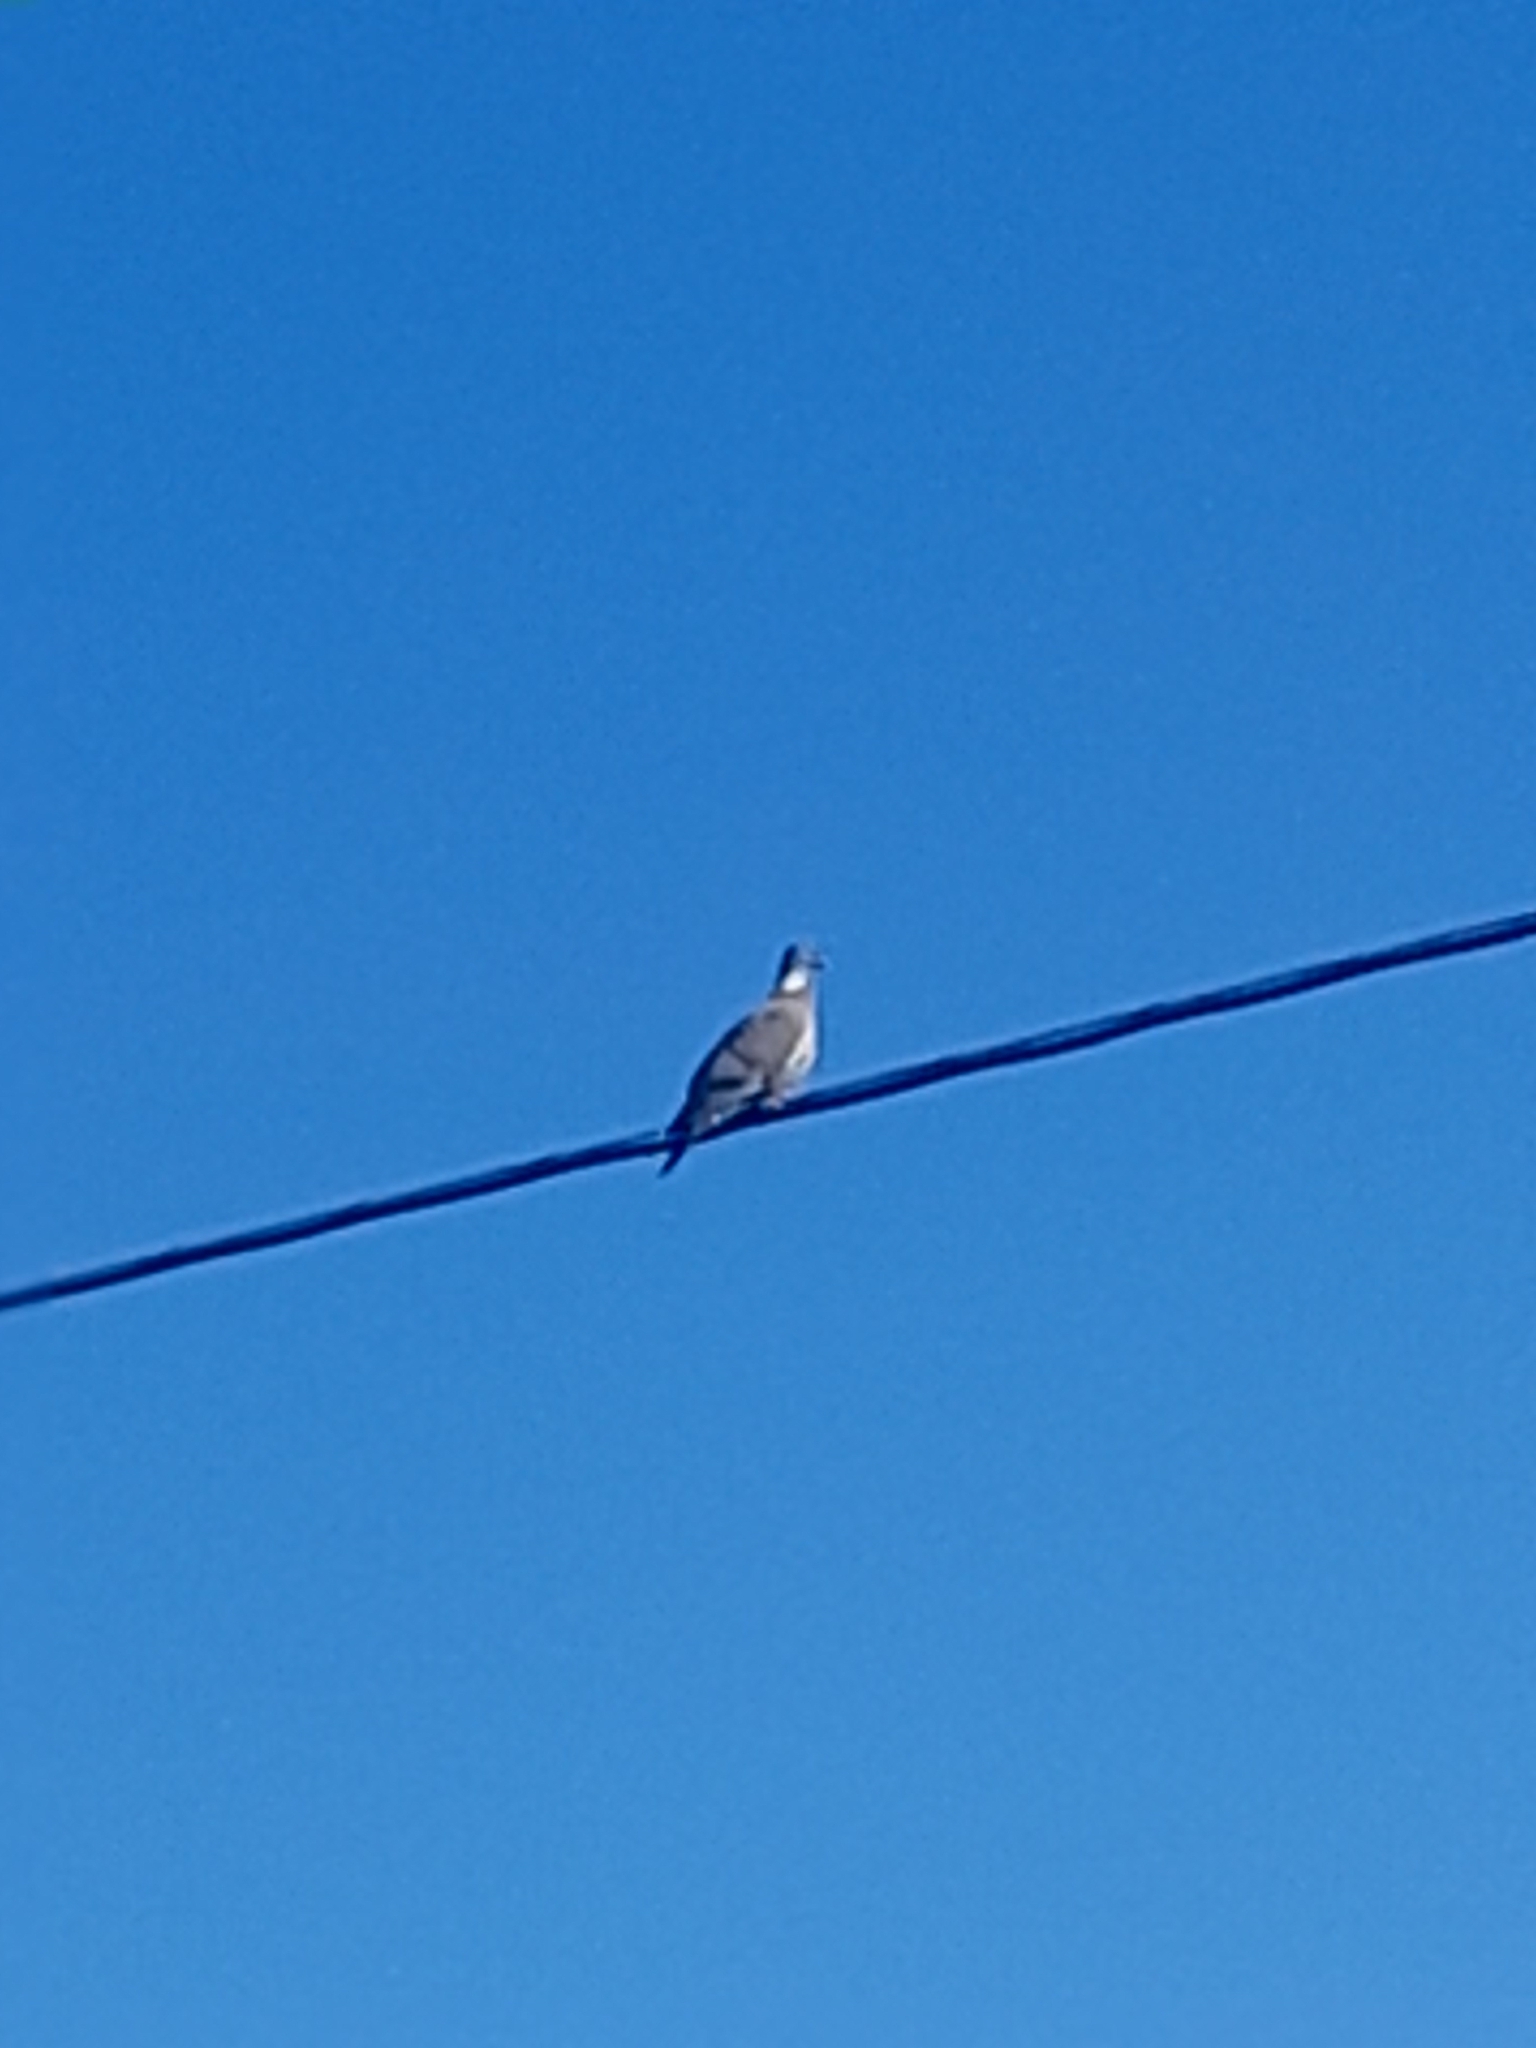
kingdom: Animalia
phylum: Chordata
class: Aves
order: Columbiformes
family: Columbidae
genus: Columba
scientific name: Columba palumbus
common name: Common wood pigeon
